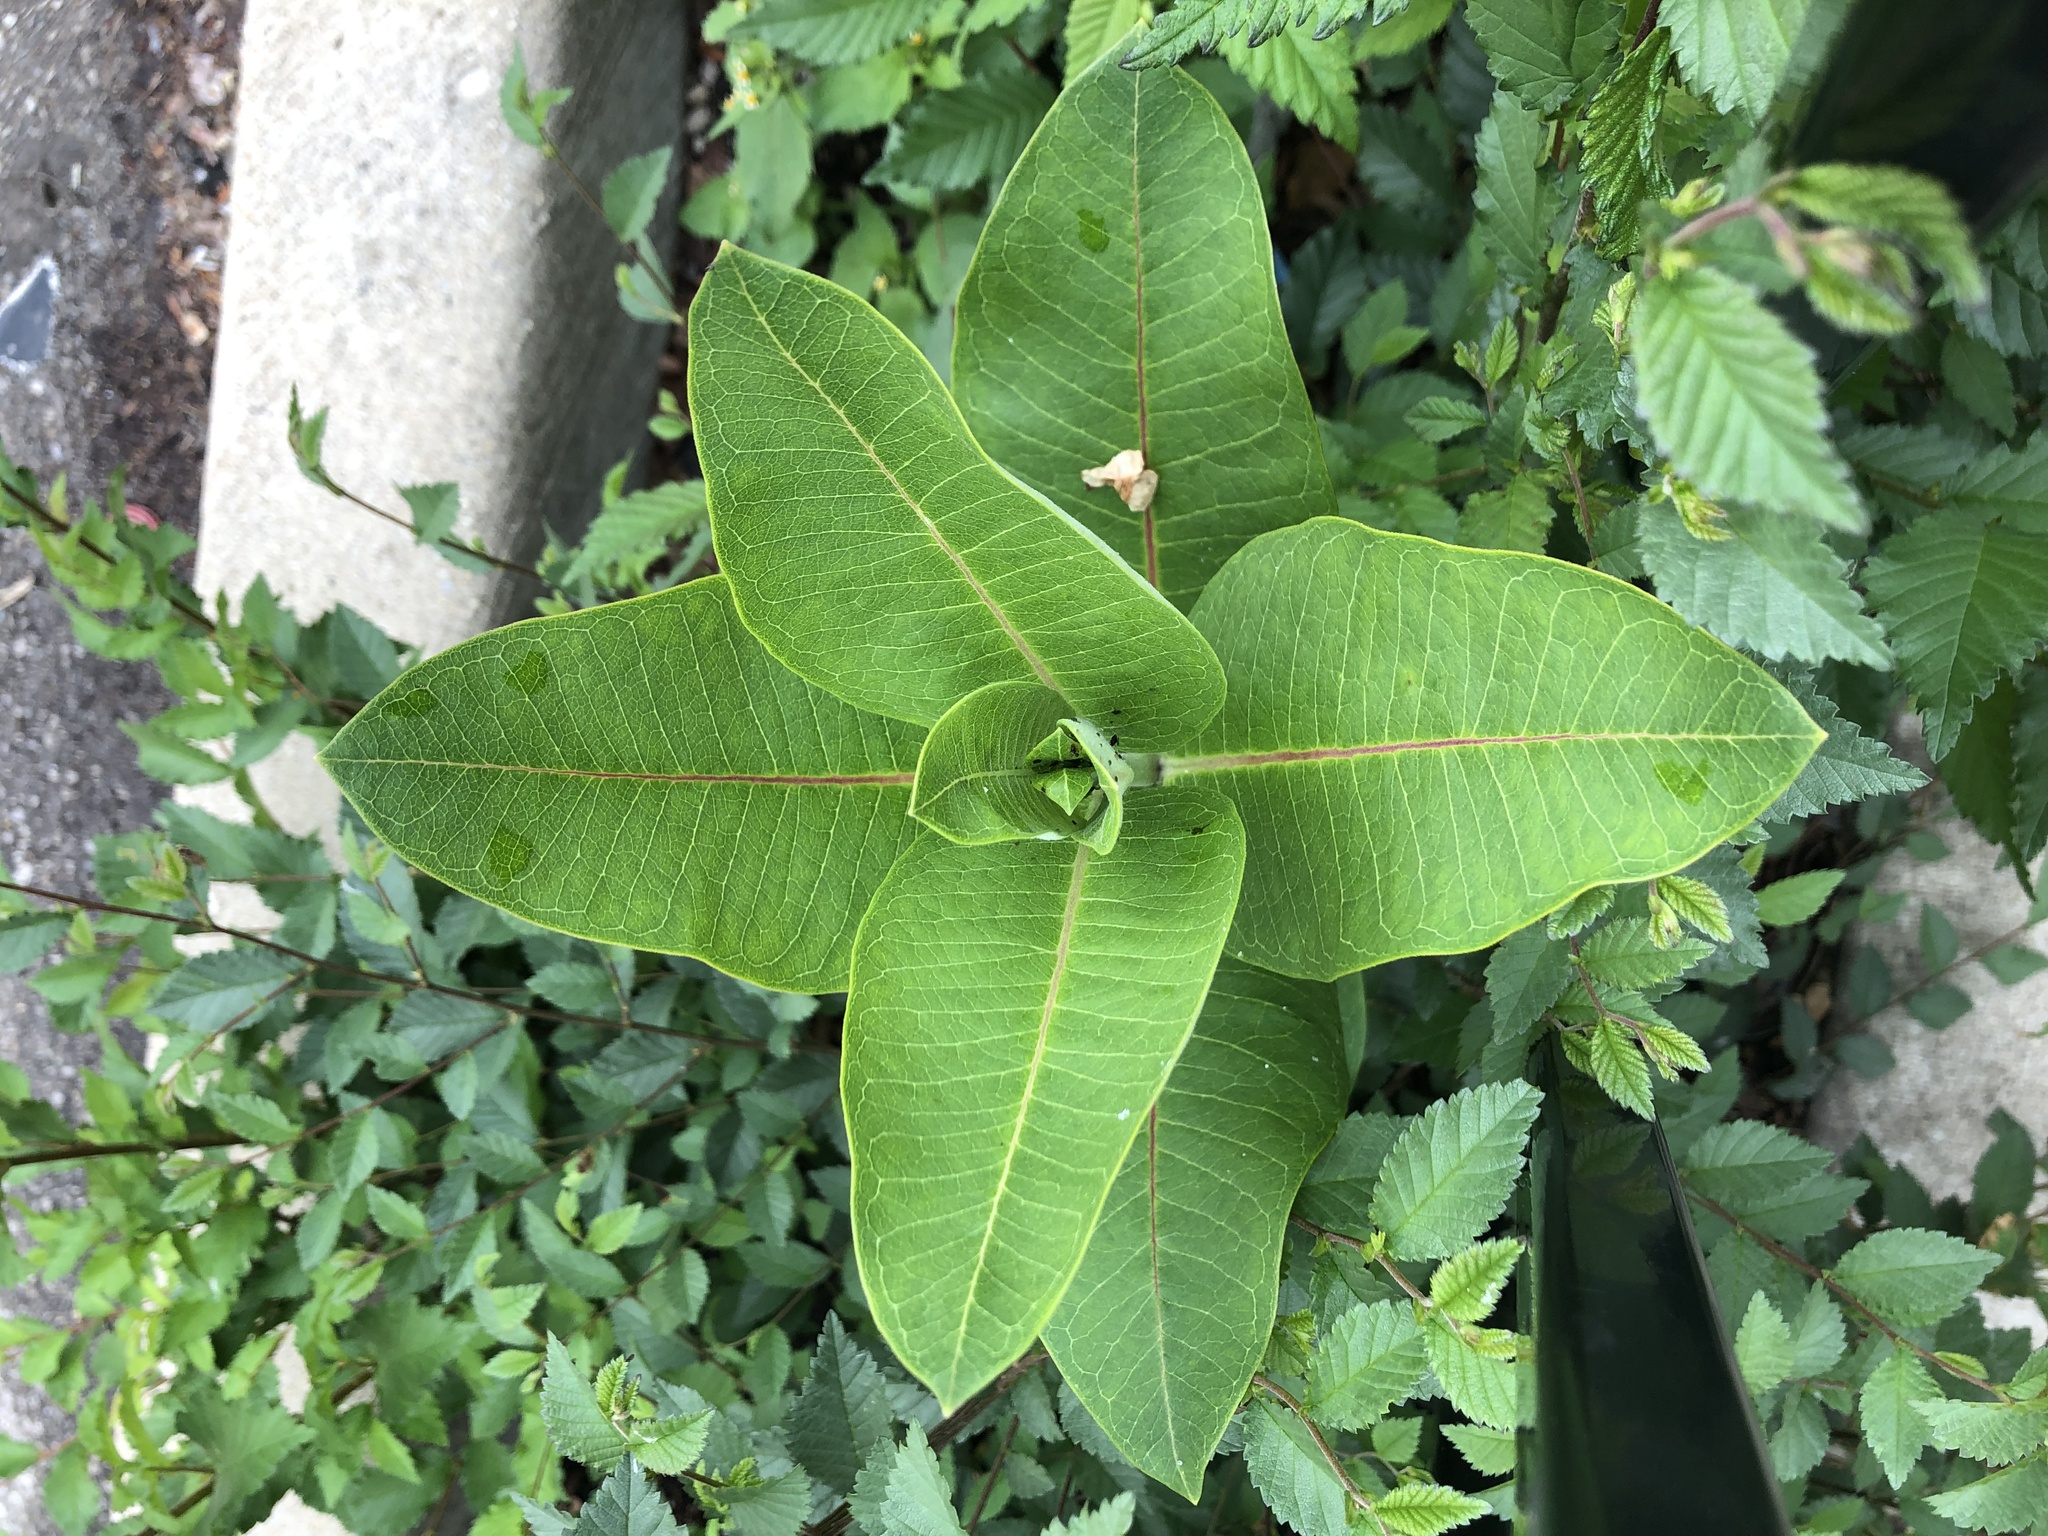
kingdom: Plantae
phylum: Tracheophyta
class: Magnoliopsida
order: Gentianales
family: Apocynaceae
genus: Asclepias
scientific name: Asclepias syriaca
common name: Common milkweed
